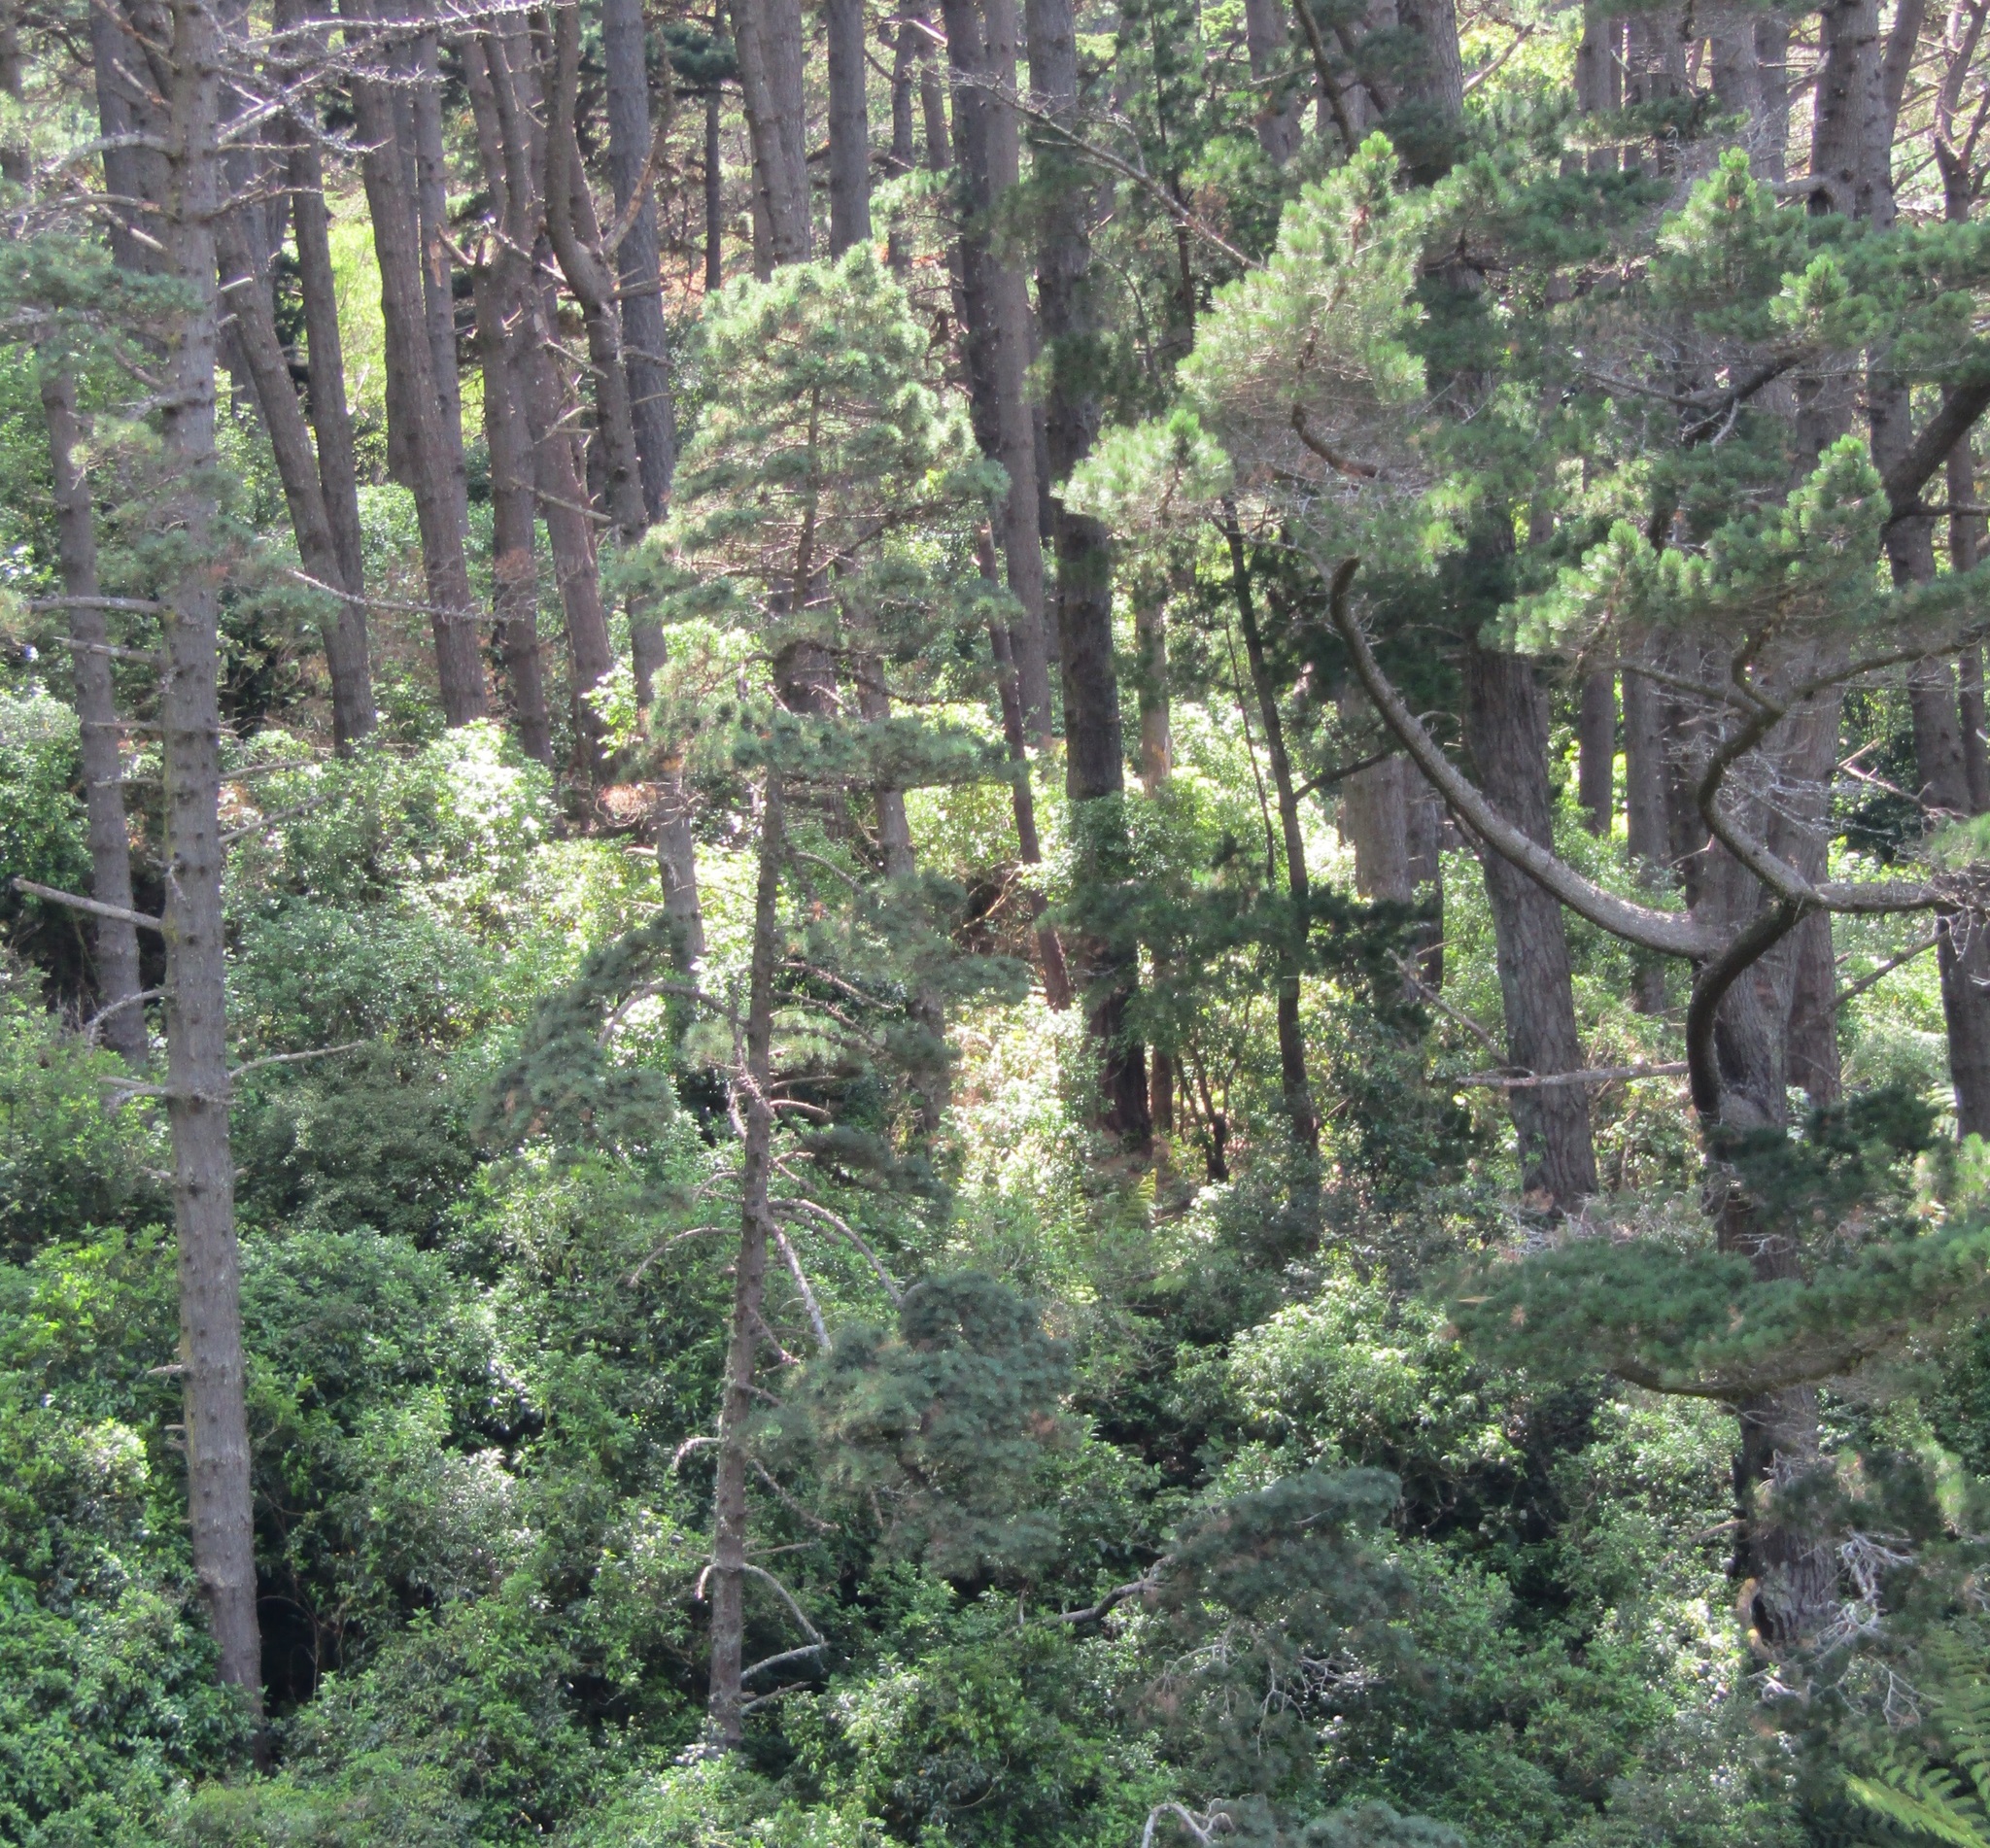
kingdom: Plantae
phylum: Tracheophyta
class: Pinopsida
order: Pinales
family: Pinaceae
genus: Pinus
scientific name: Pinus radiata
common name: Monterey pine
